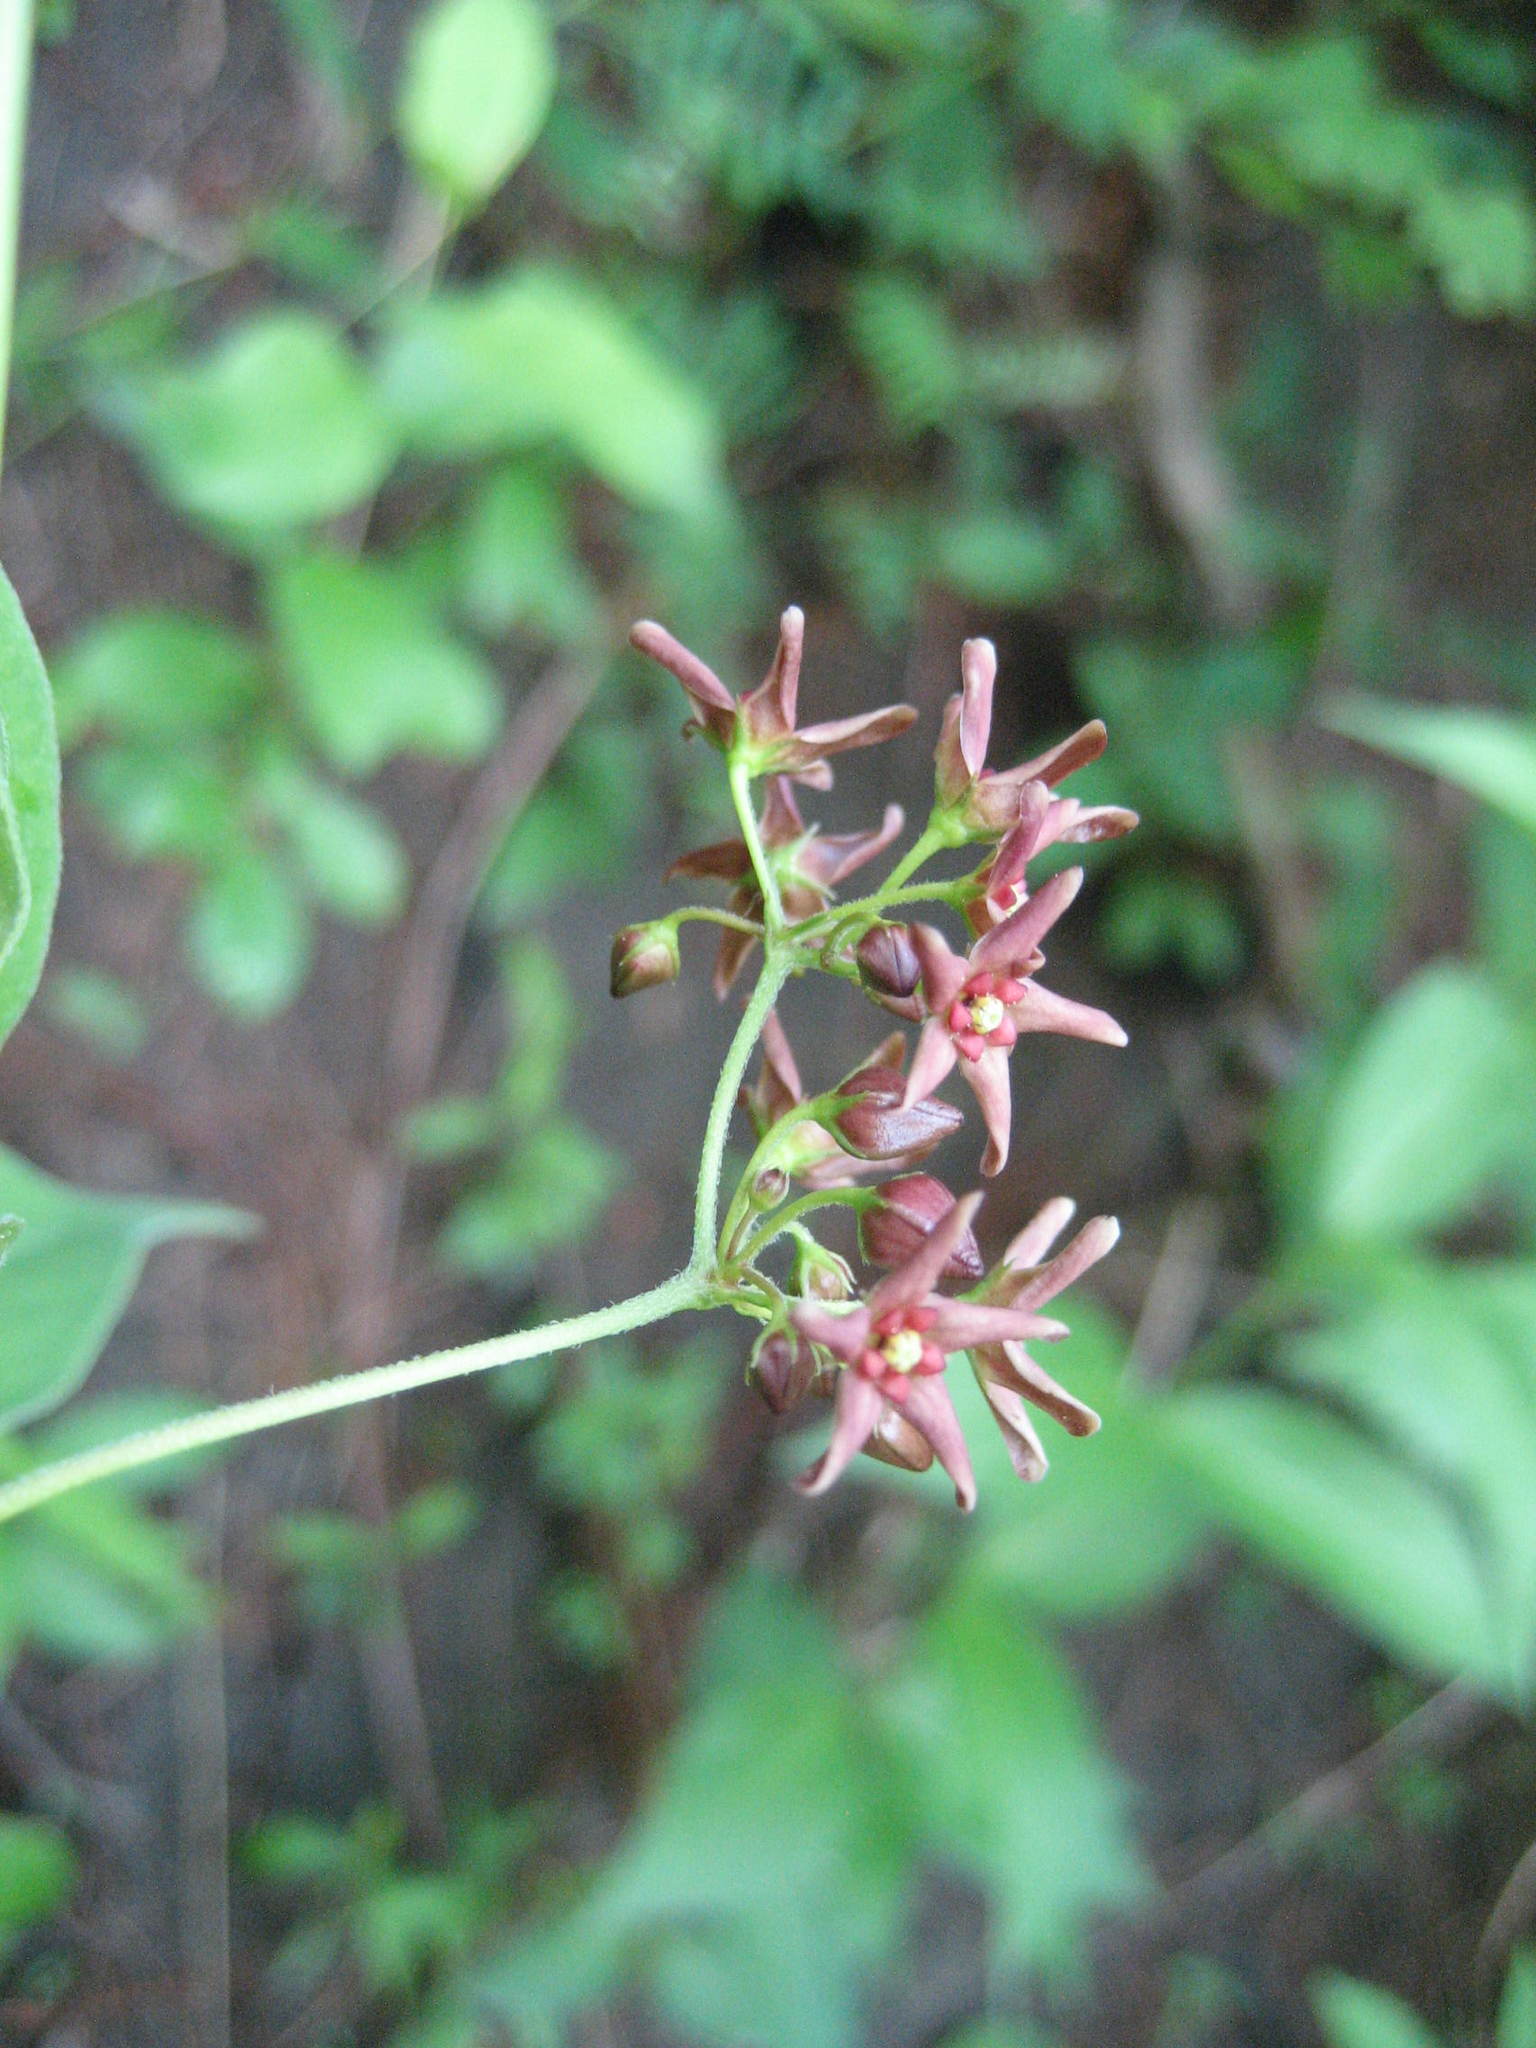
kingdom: Plantae
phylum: Tracheophyta
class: Magnoliopsida
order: Gentianales
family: Apocynaceae
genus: Vincetoxicum
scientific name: Vincetoxicum rossicum
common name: Dog-strangling vine
